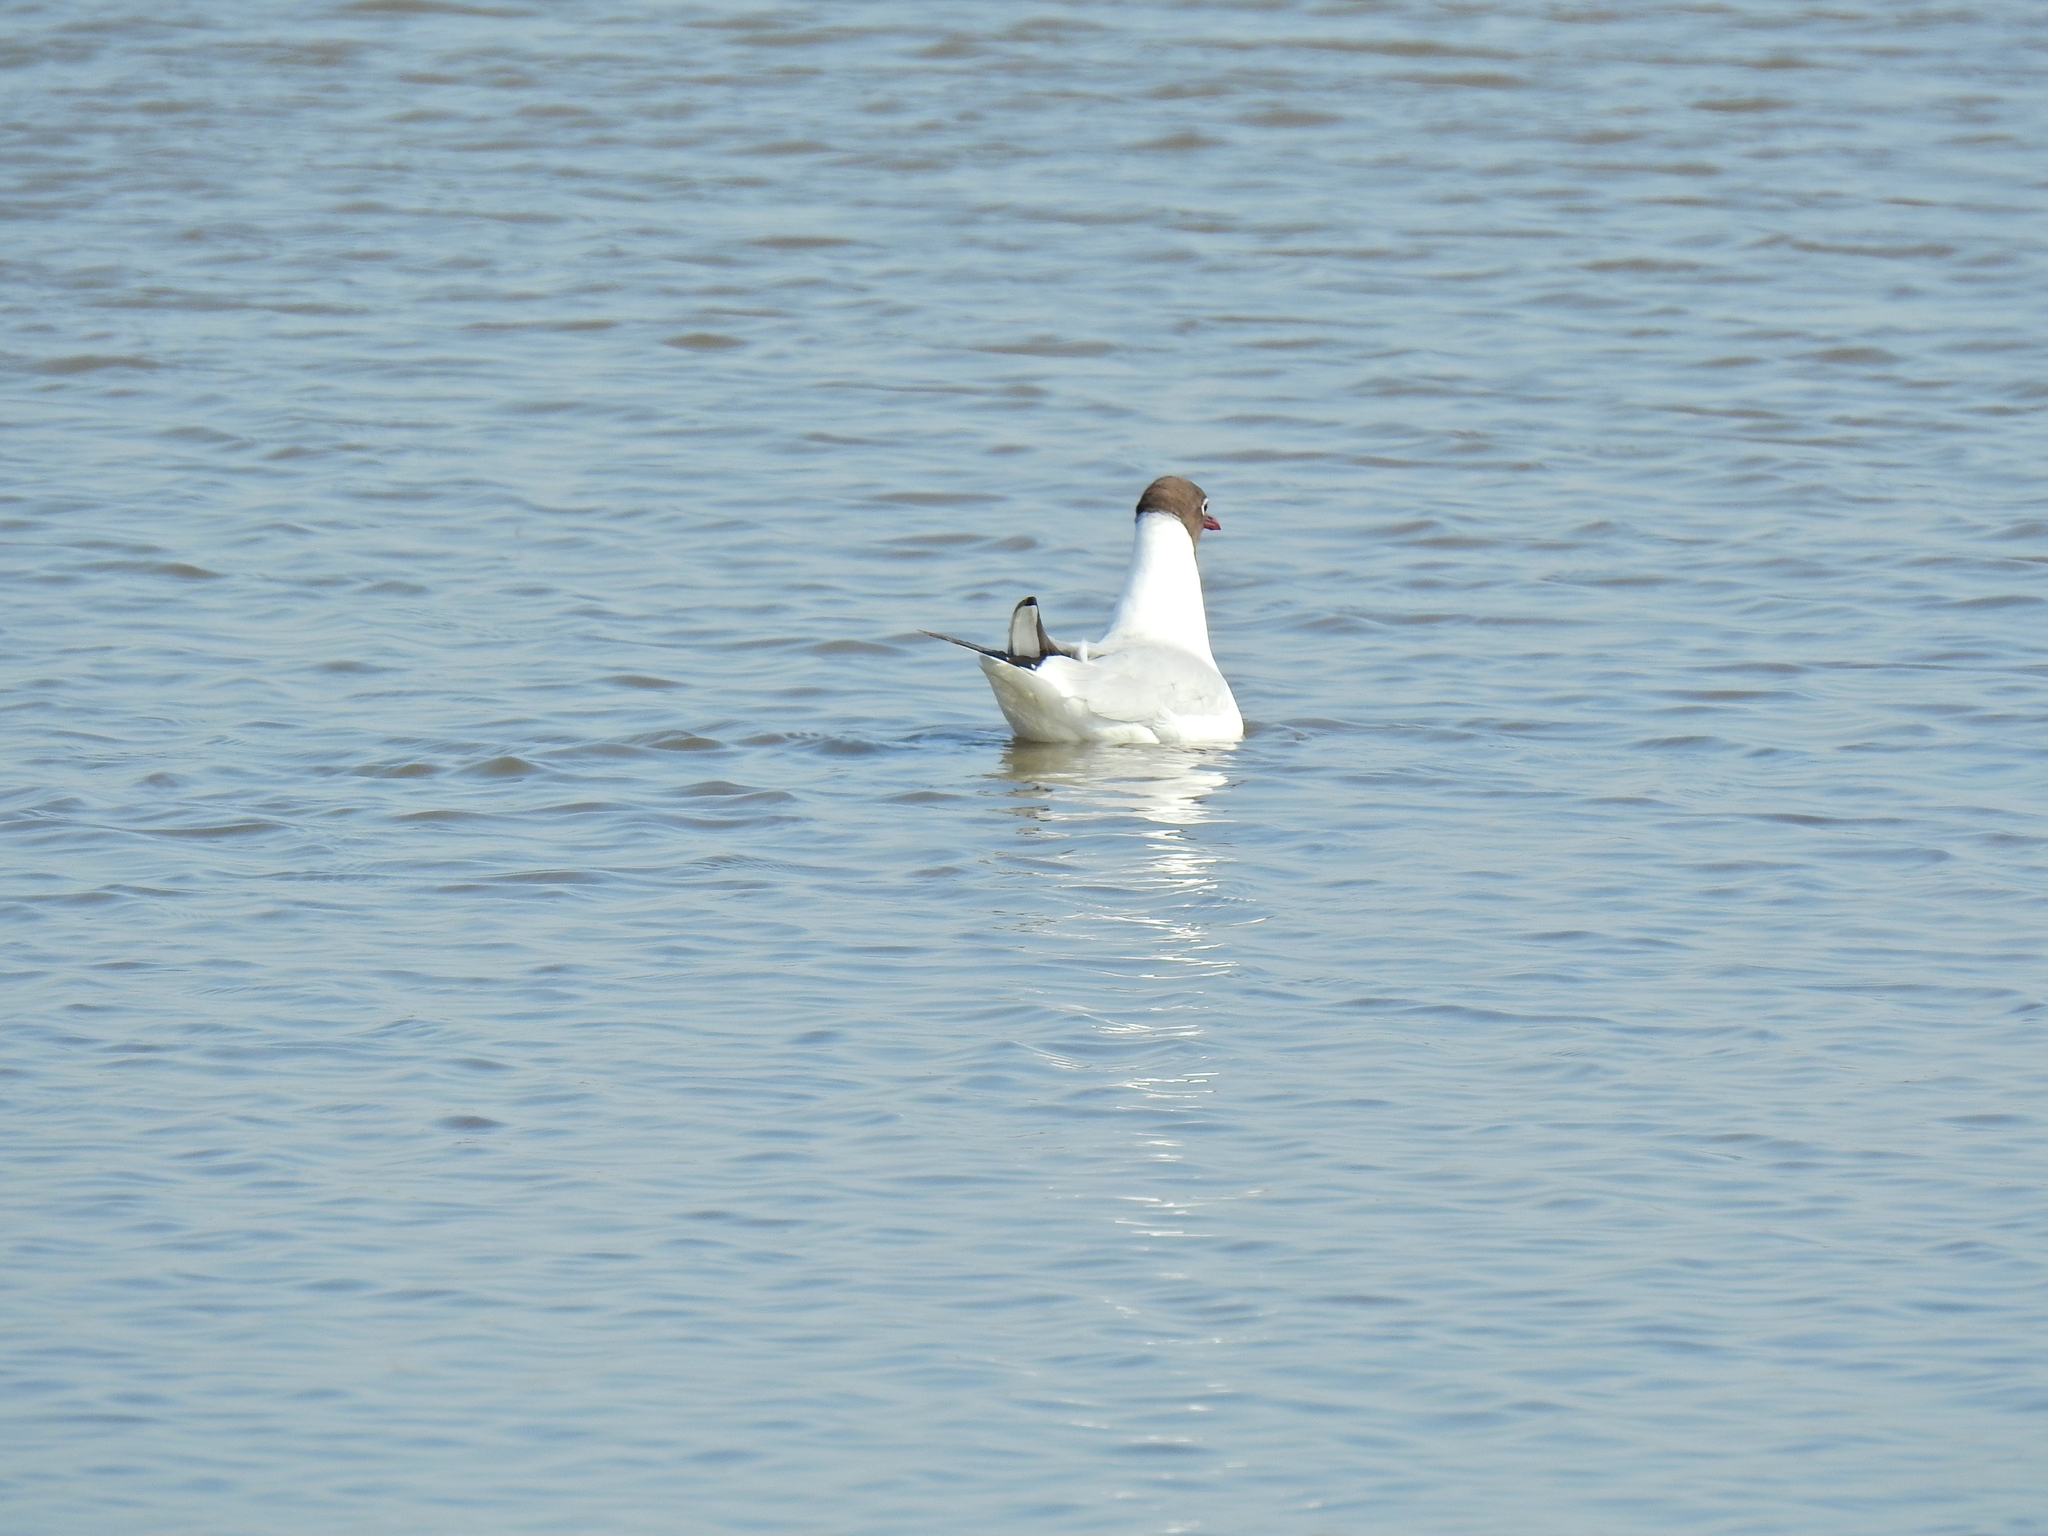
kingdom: Animalia
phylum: Chordata
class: Aves
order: Charadriiformes
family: Laridae
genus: Chroicocephalus
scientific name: Chroicocephalus ridibundus
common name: Black-headed gull
